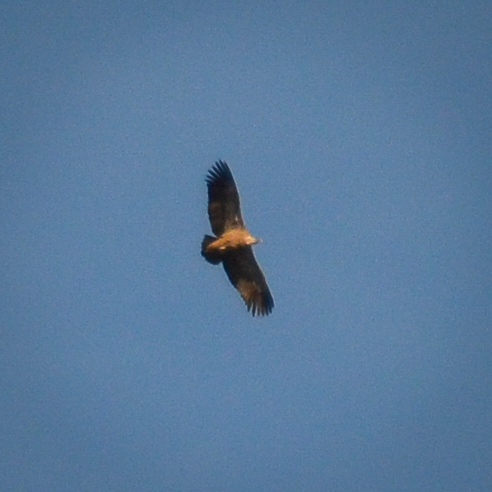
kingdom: Animalia
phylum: Chordata
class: Aves
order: Accipitriformes
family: Accipitridae
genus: Gyps
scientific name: Gyps fulvus
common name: Griffon vulture
